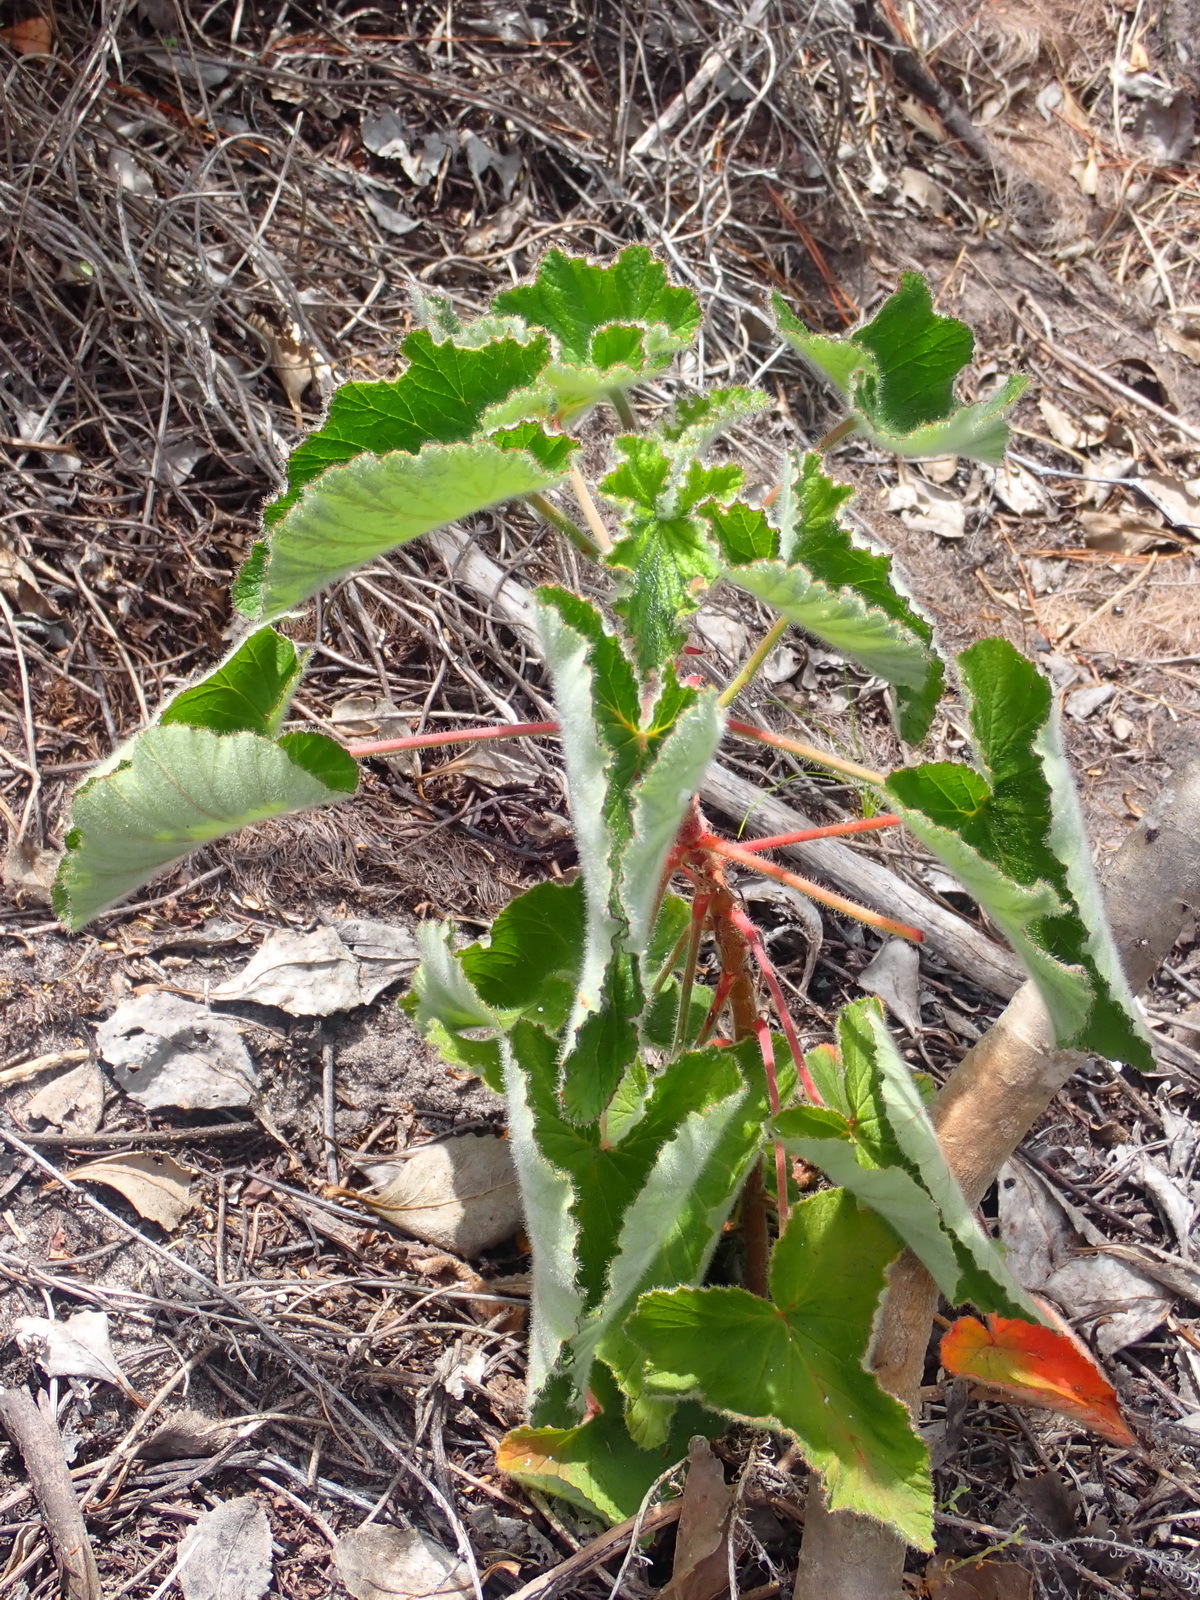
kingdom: Plantae
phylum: Tracheophyta
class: Magnoliopsida
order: Geraniales
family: Geraniaceae
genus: Pelargonium
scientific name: Pelargonium cordifolium
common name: Heart-leaf pelargonium
